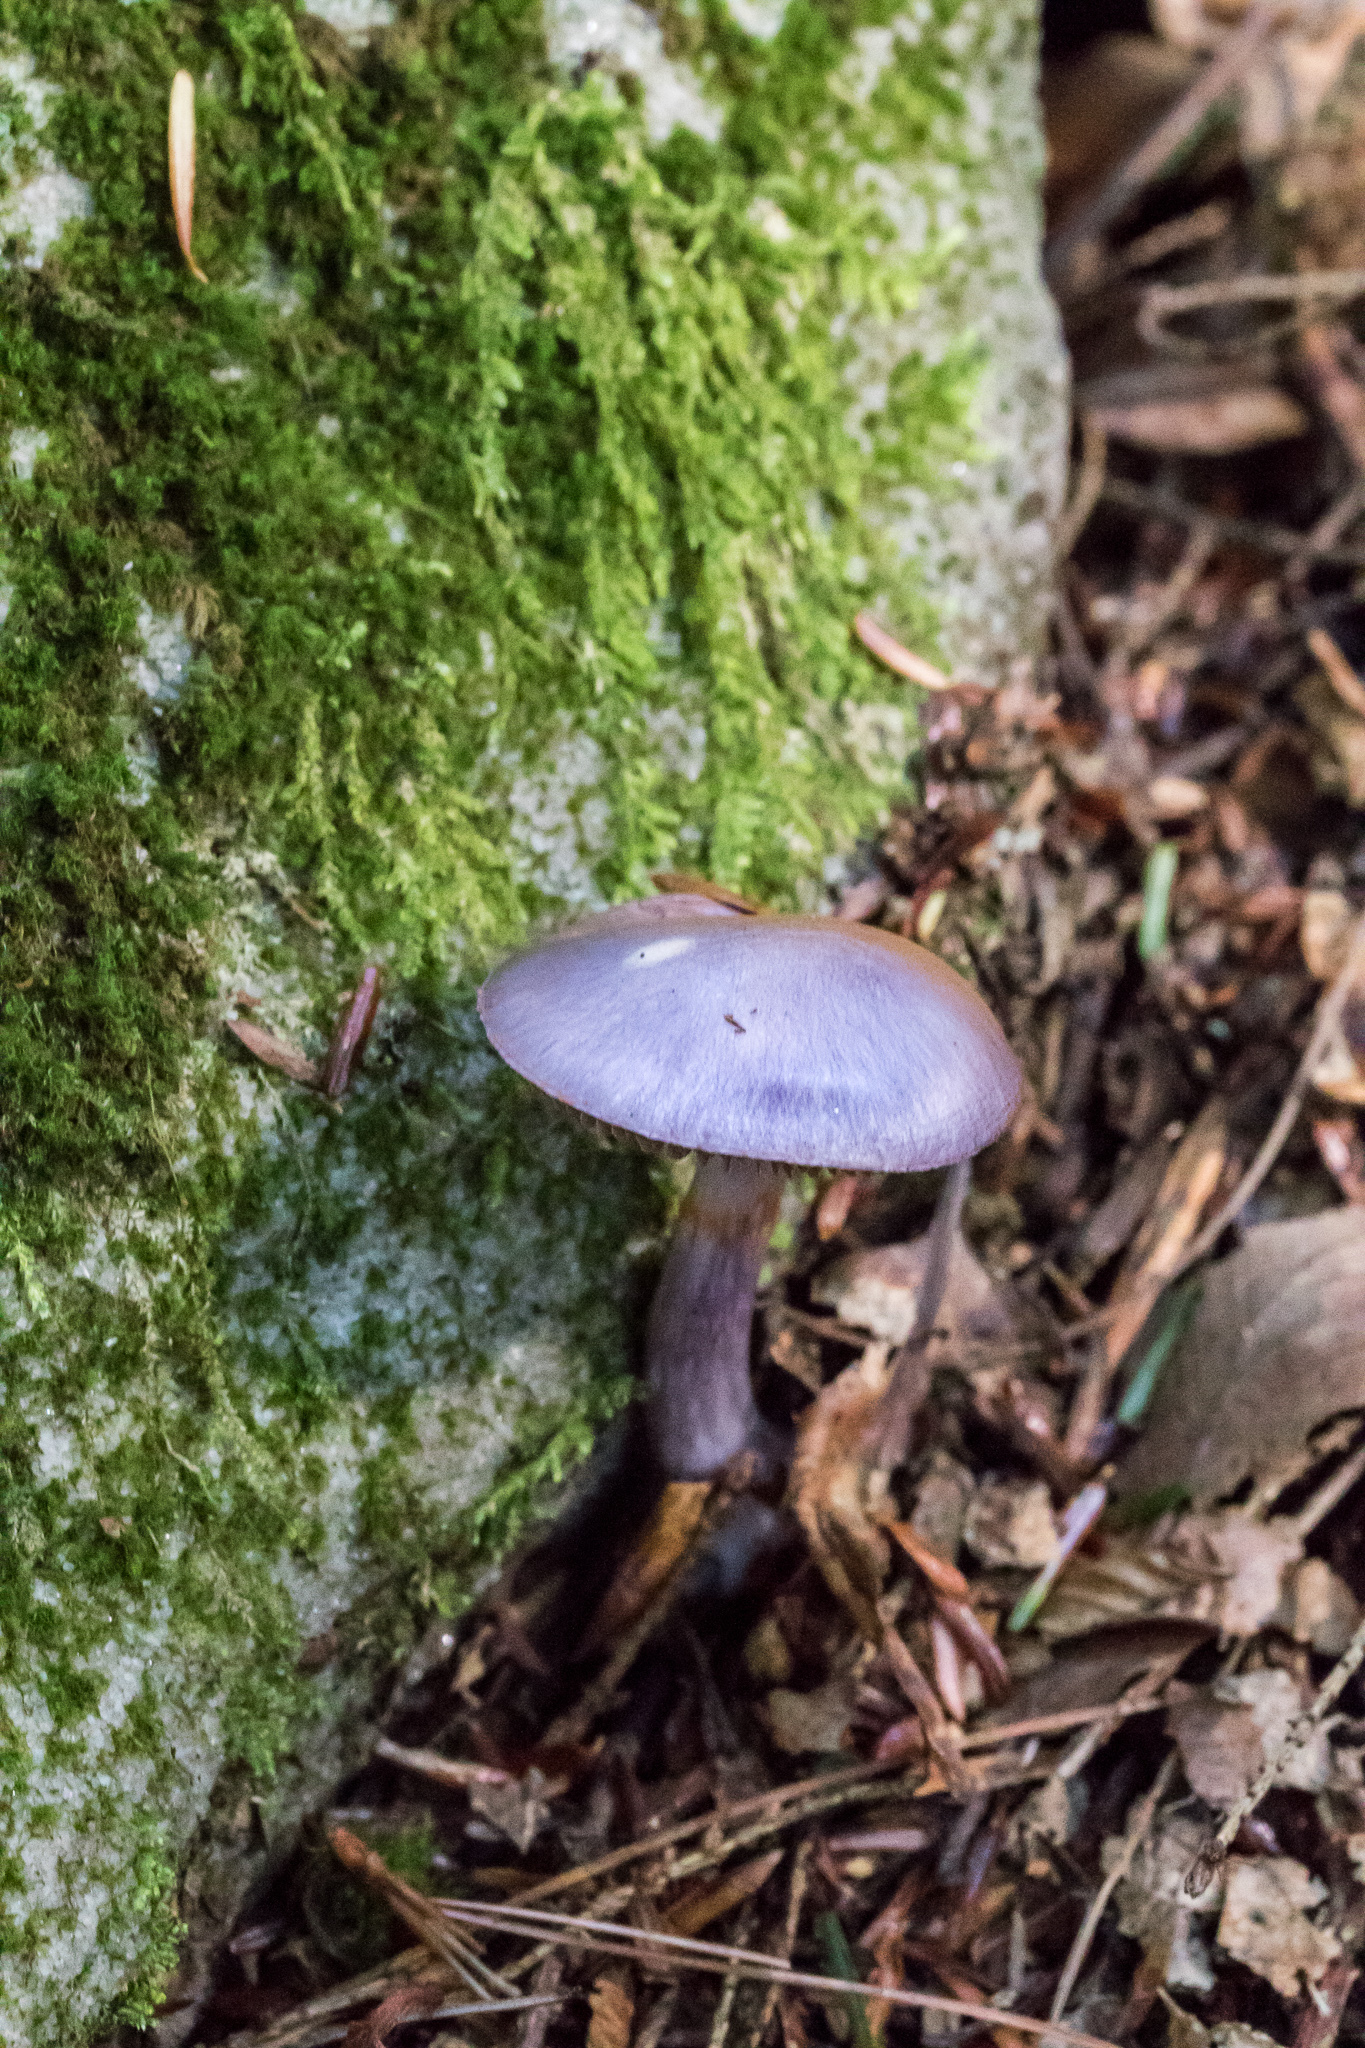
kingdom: Fungi
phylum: Basidiomycota
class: Agaricomycetes
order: Agaricales
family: Cortinariaceae
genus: Cortinarius
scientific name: Cortinarius iodes
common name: Viscid violet cort
